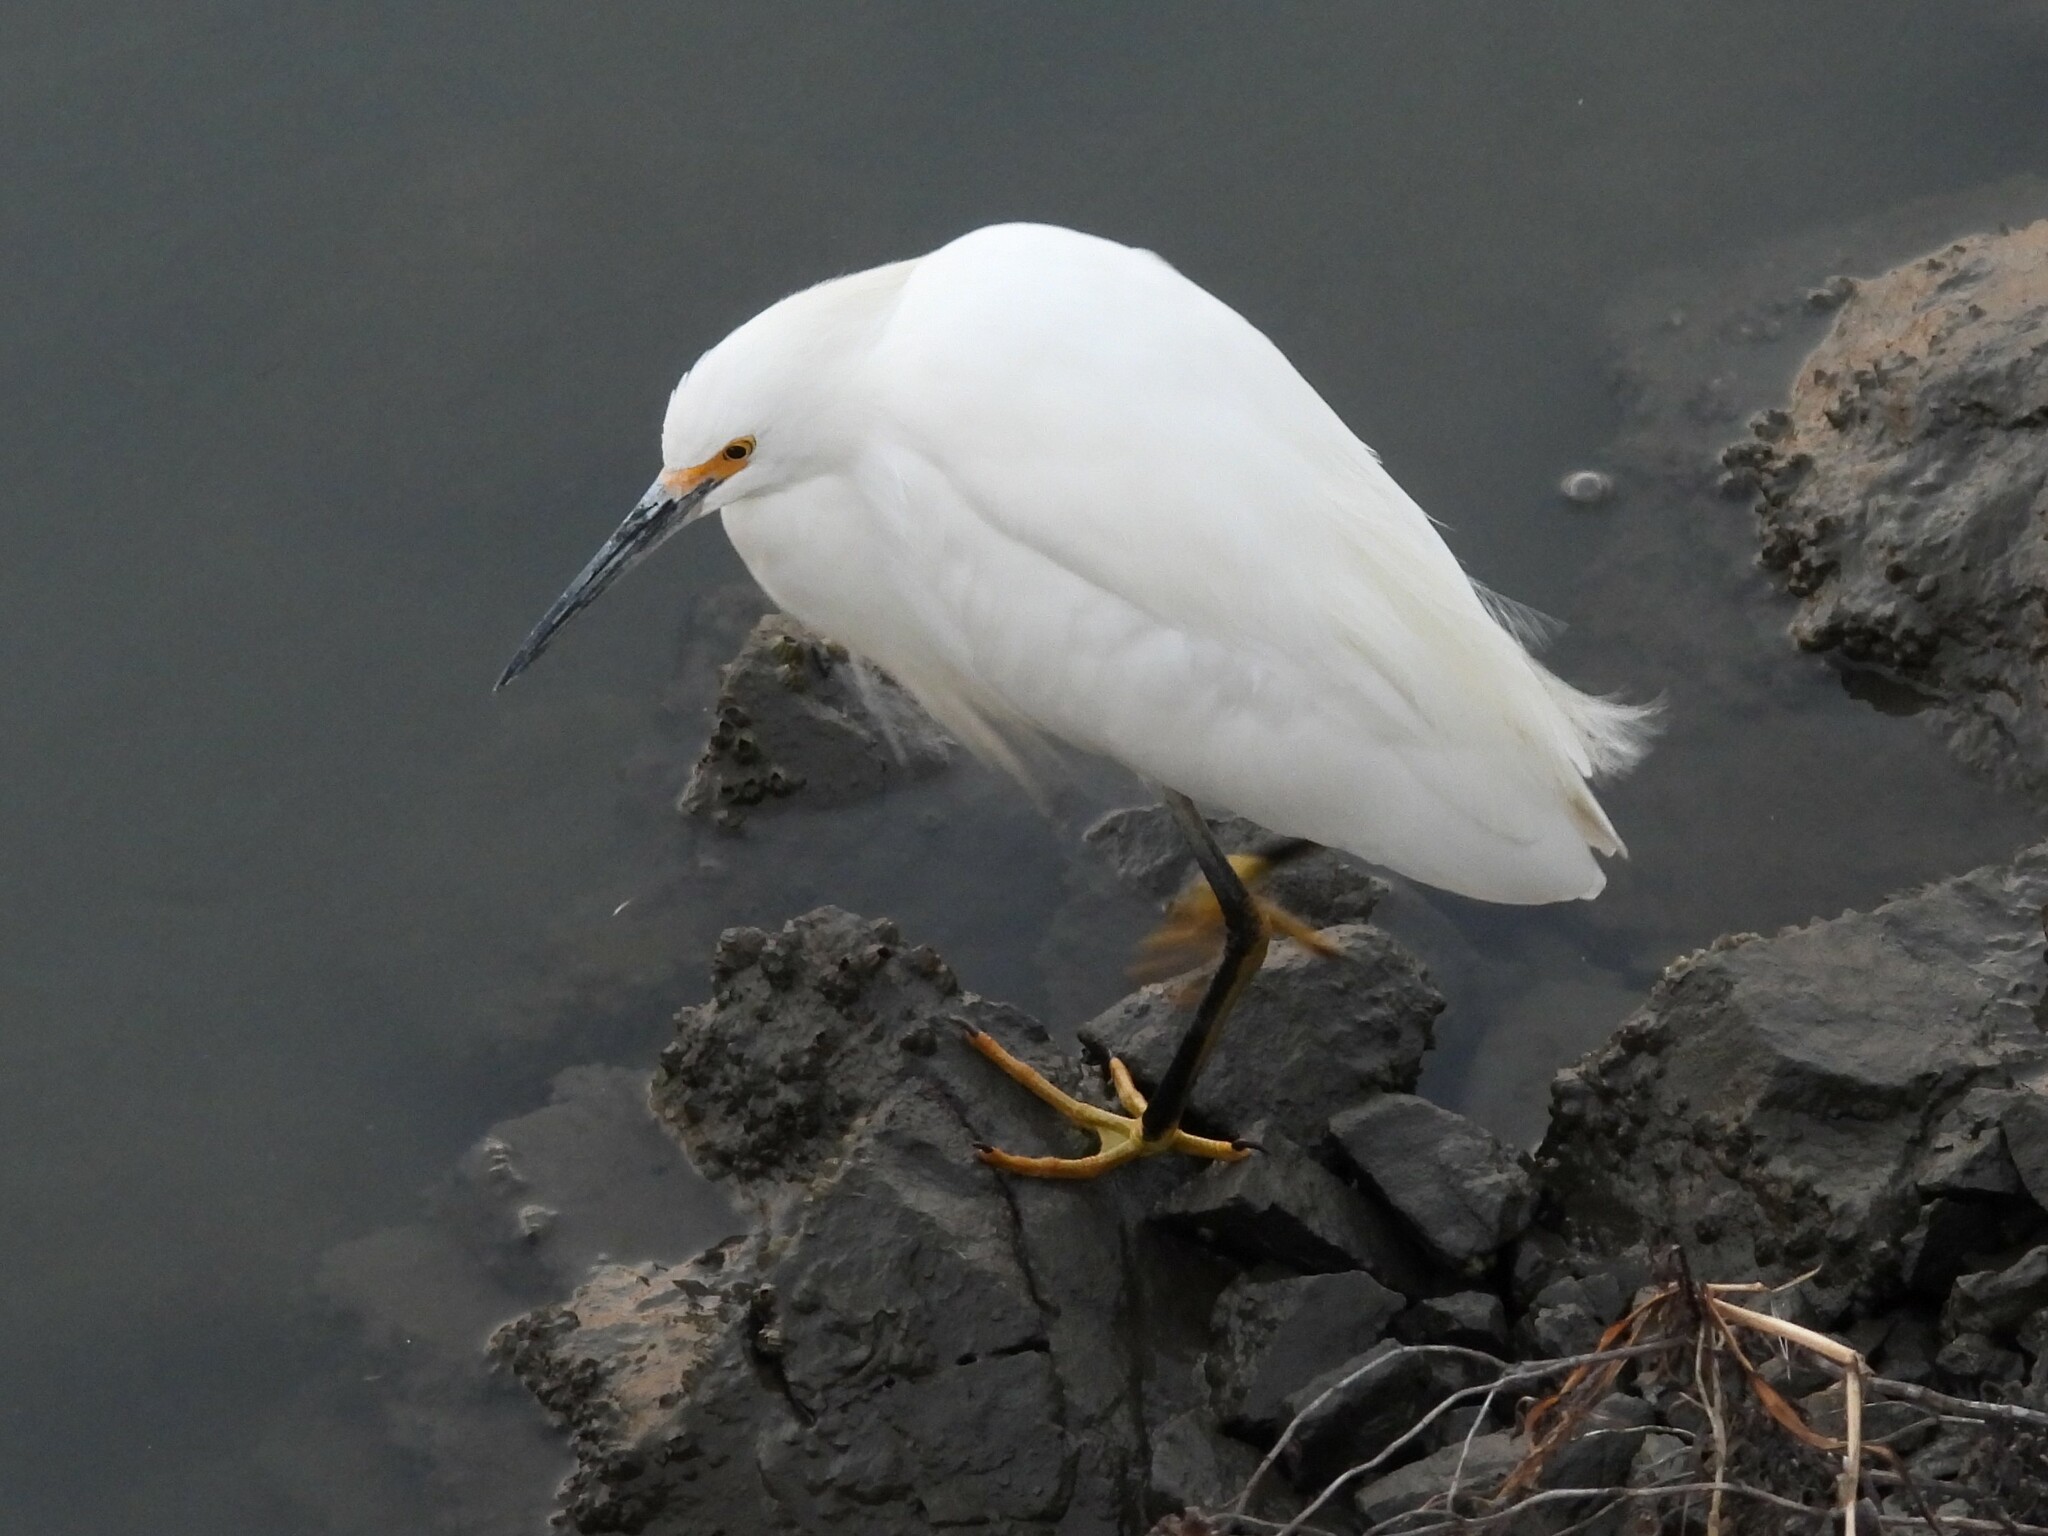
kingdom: Animalia
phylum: Chordata
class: Aves
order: Pelecaniformes
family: Ardeidae
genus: Egretta
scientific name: Egretta thula
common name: Snowy egret
